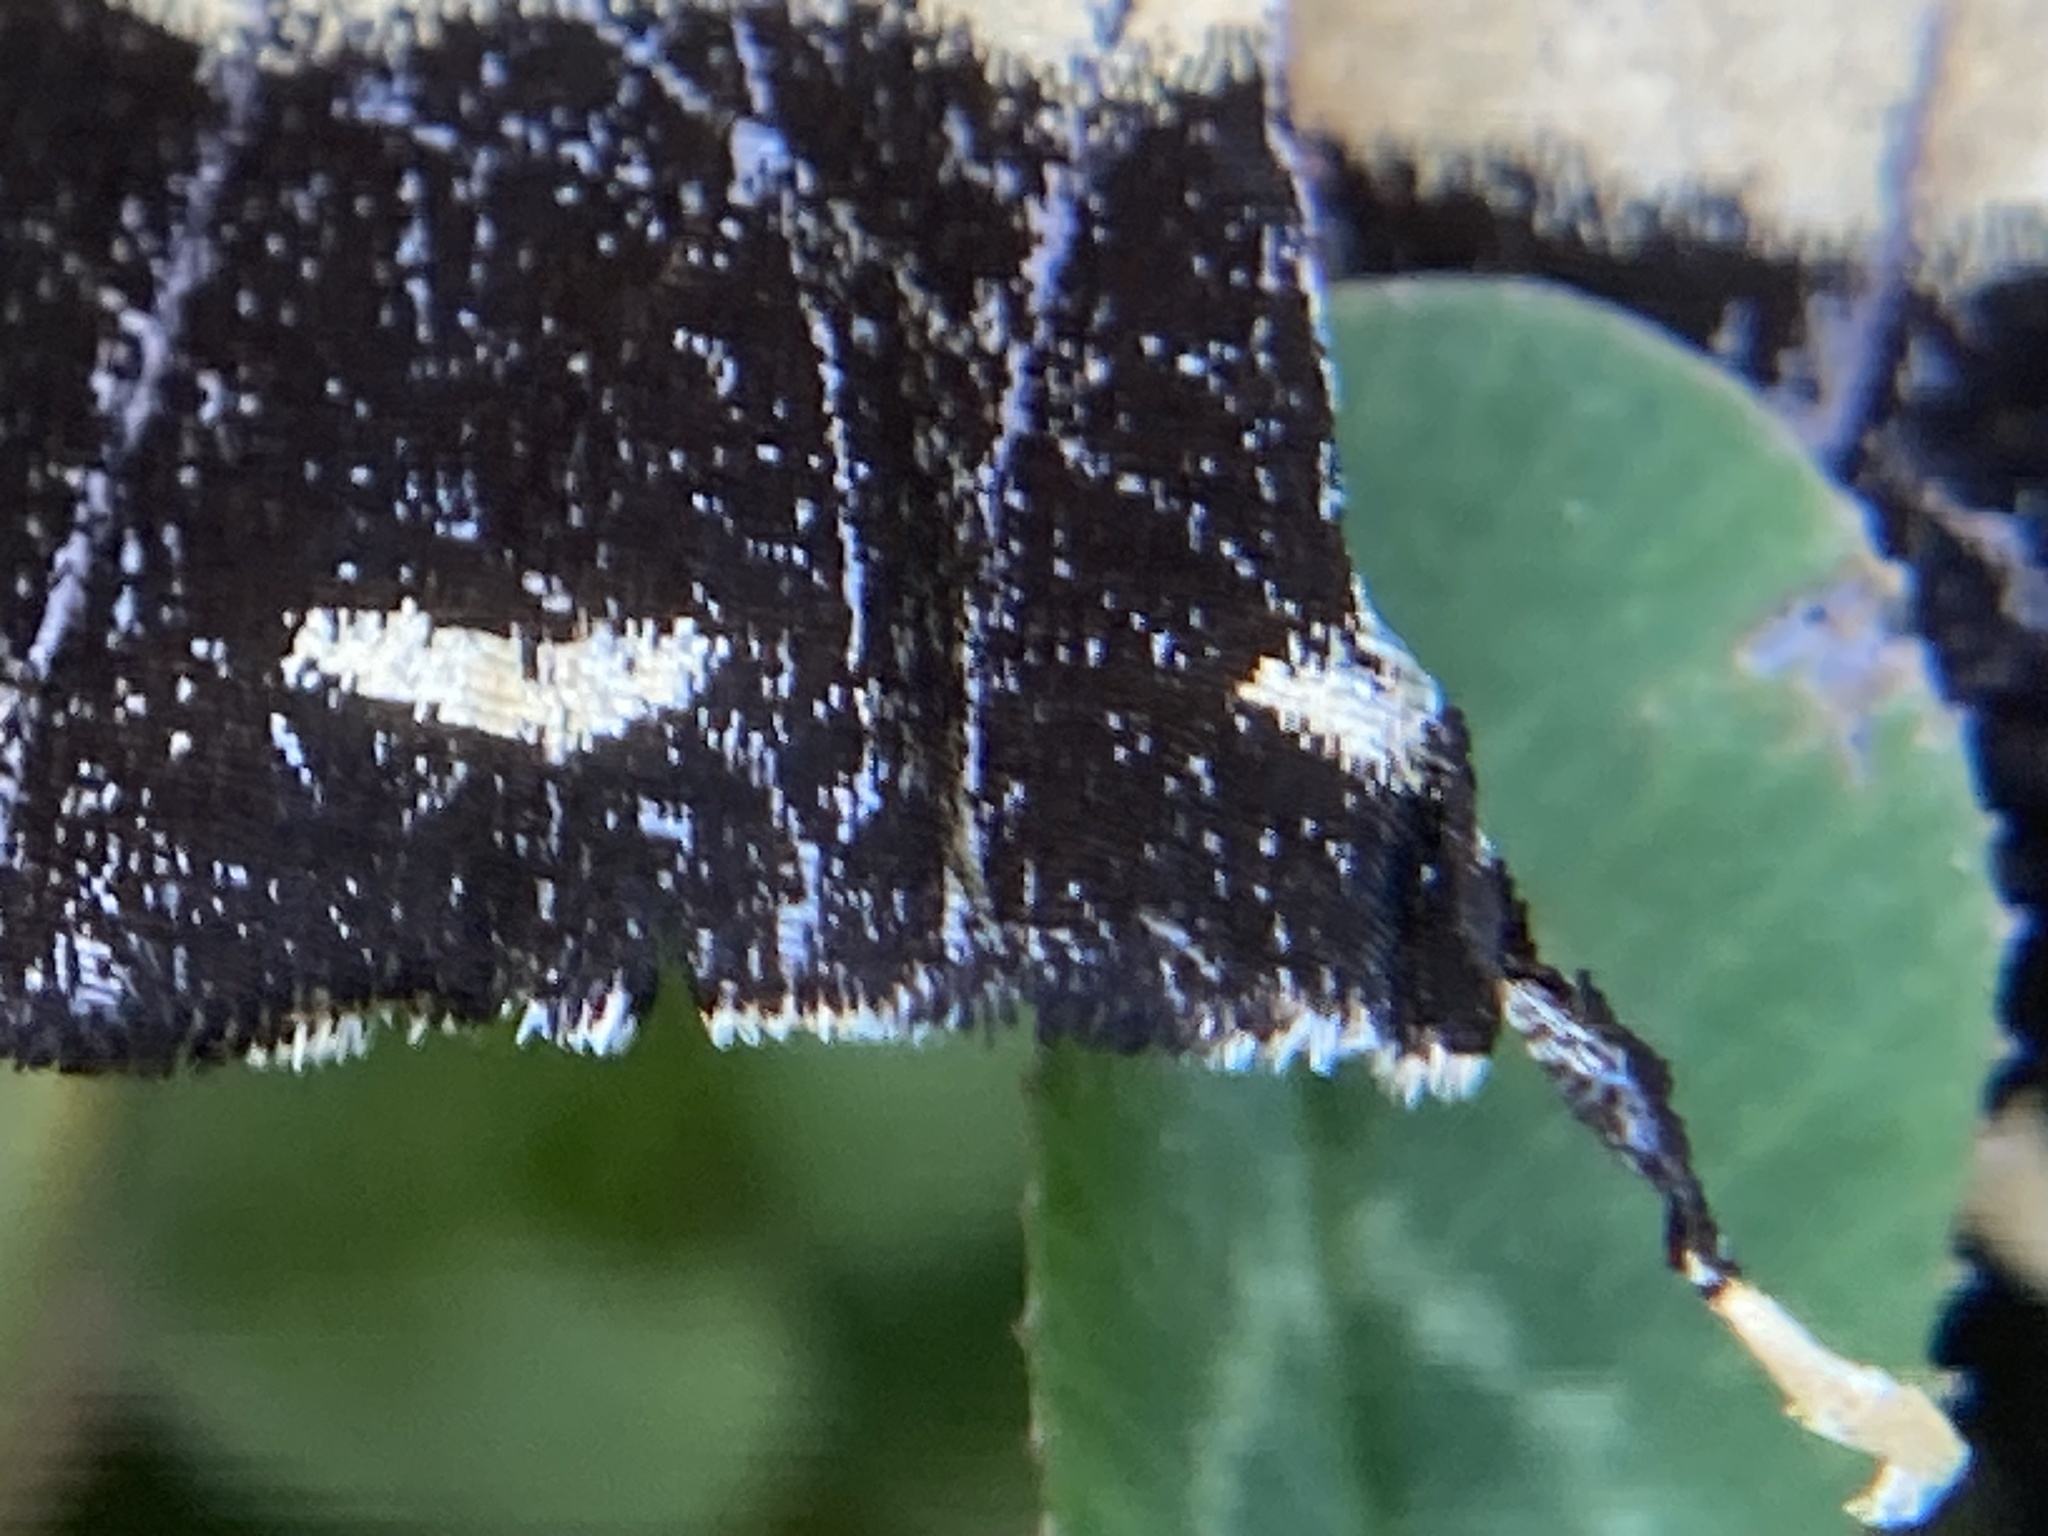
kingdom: Animalia
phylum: Arthropoda
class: Insecta
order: Lepidoptera
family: Papilionidae
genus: Papilio
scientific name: Papilio glaucus
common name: Tiger swallowtail
